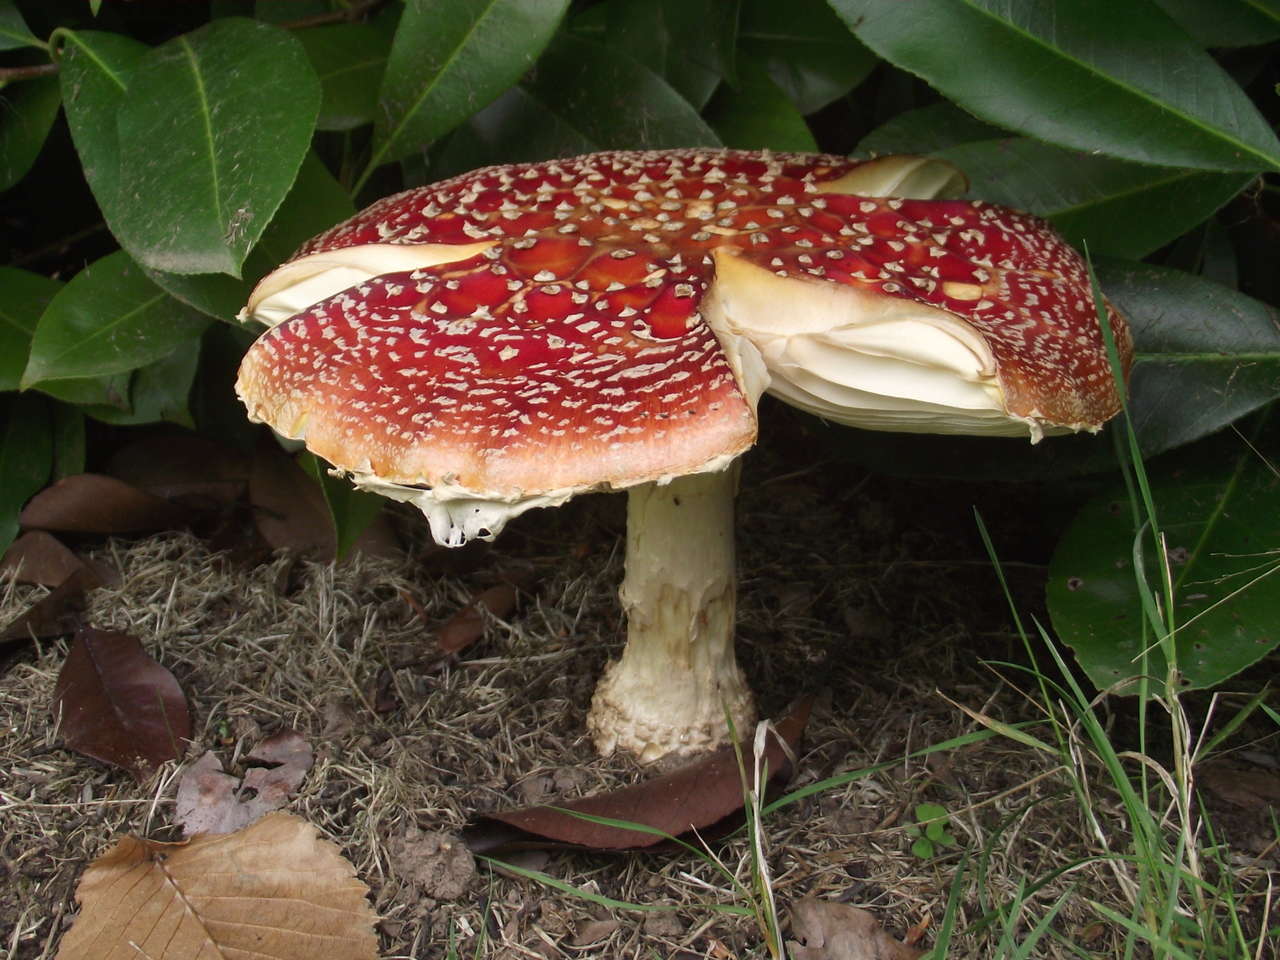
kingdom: Fungi
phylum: Basidiomycota
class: Agaricomycetes
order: Agaricales
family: Amanitaceae
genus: Amanita
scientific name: Amanita muscaria
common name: Fly agaric
